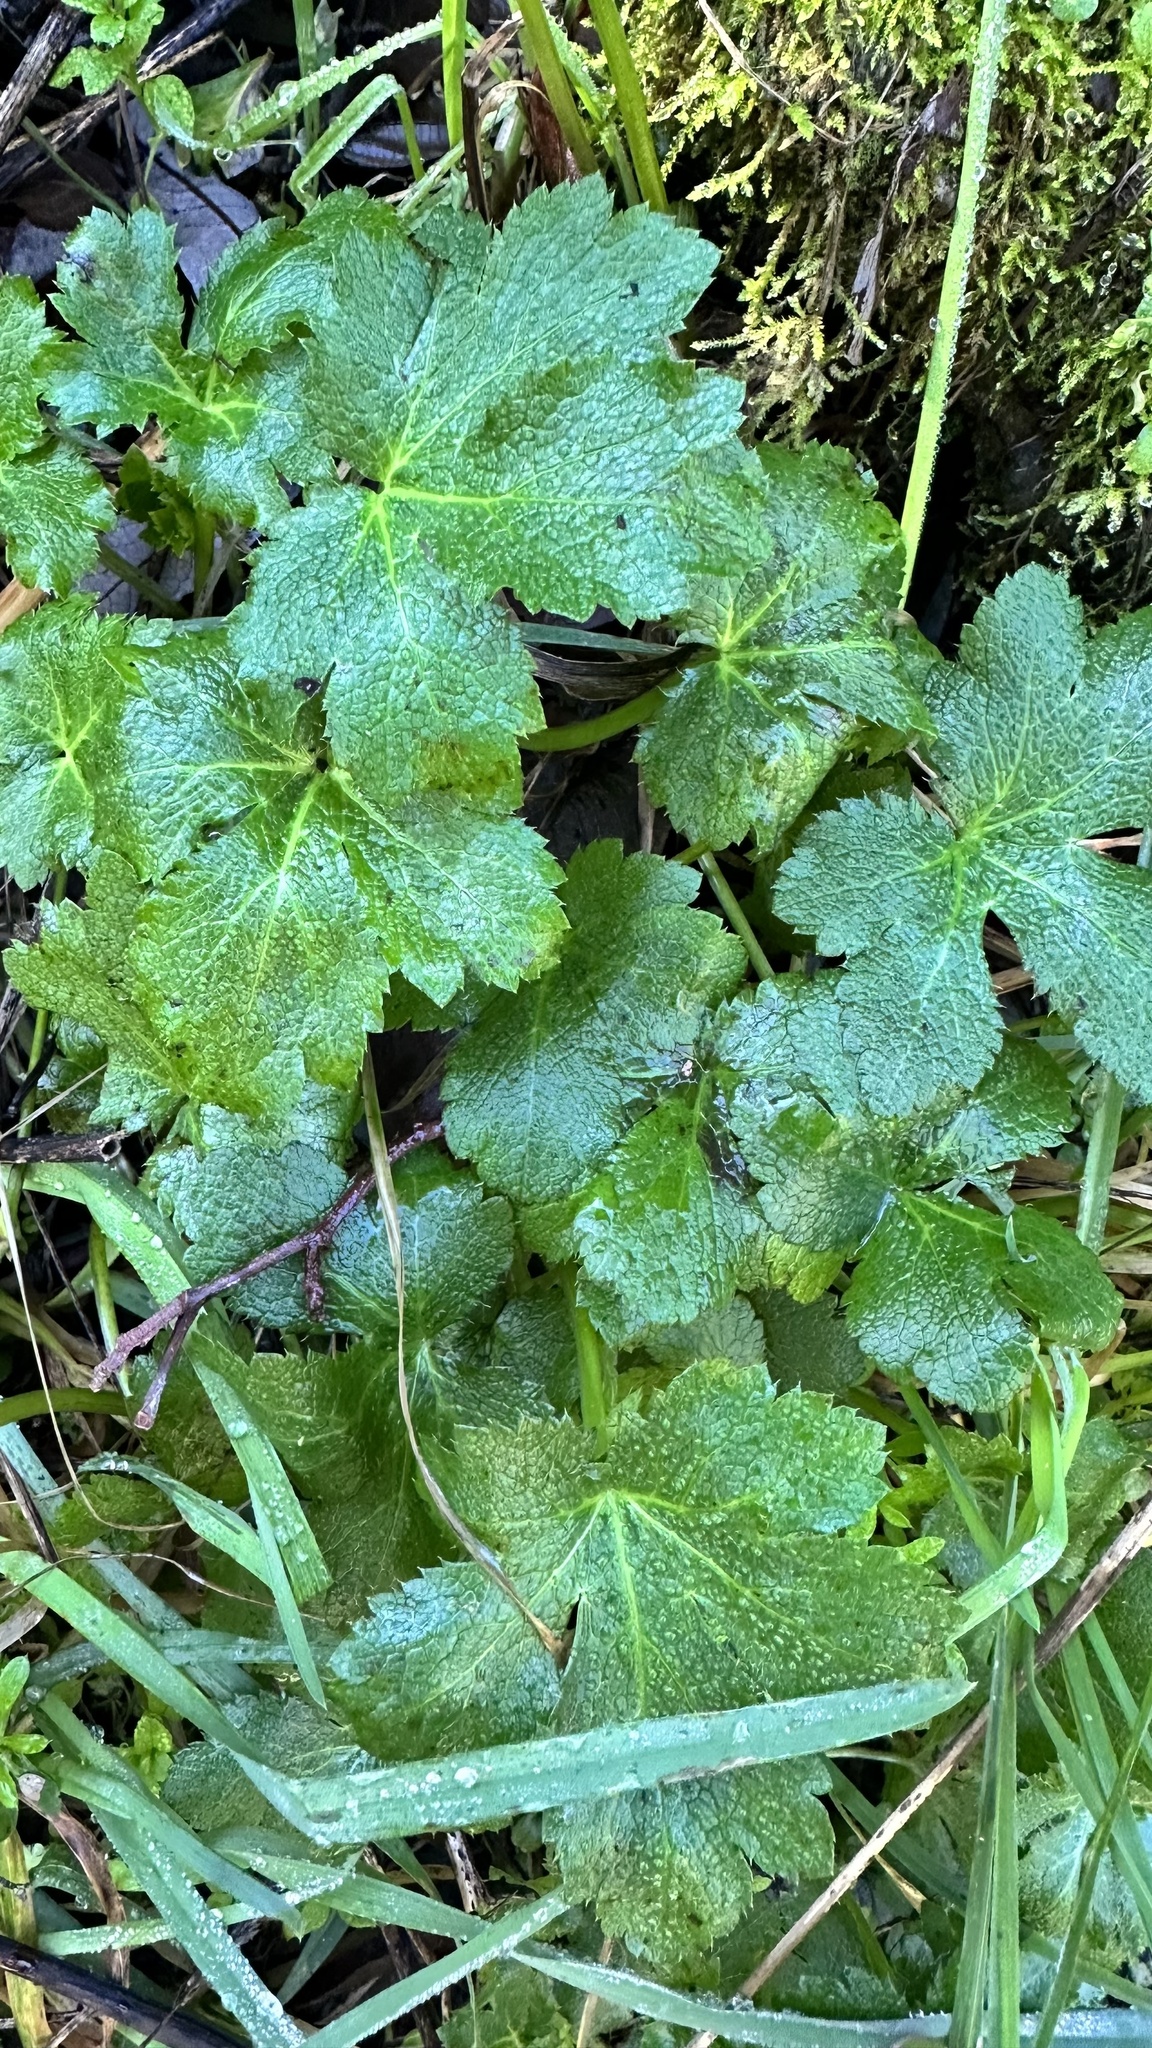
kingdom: Plantae
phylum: Tracheophyta
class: Magnoliopsida
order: Apiales
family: Apiaceae
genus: Sanicula
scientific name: Sanicula crassicaulis
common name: Western snakeroot
